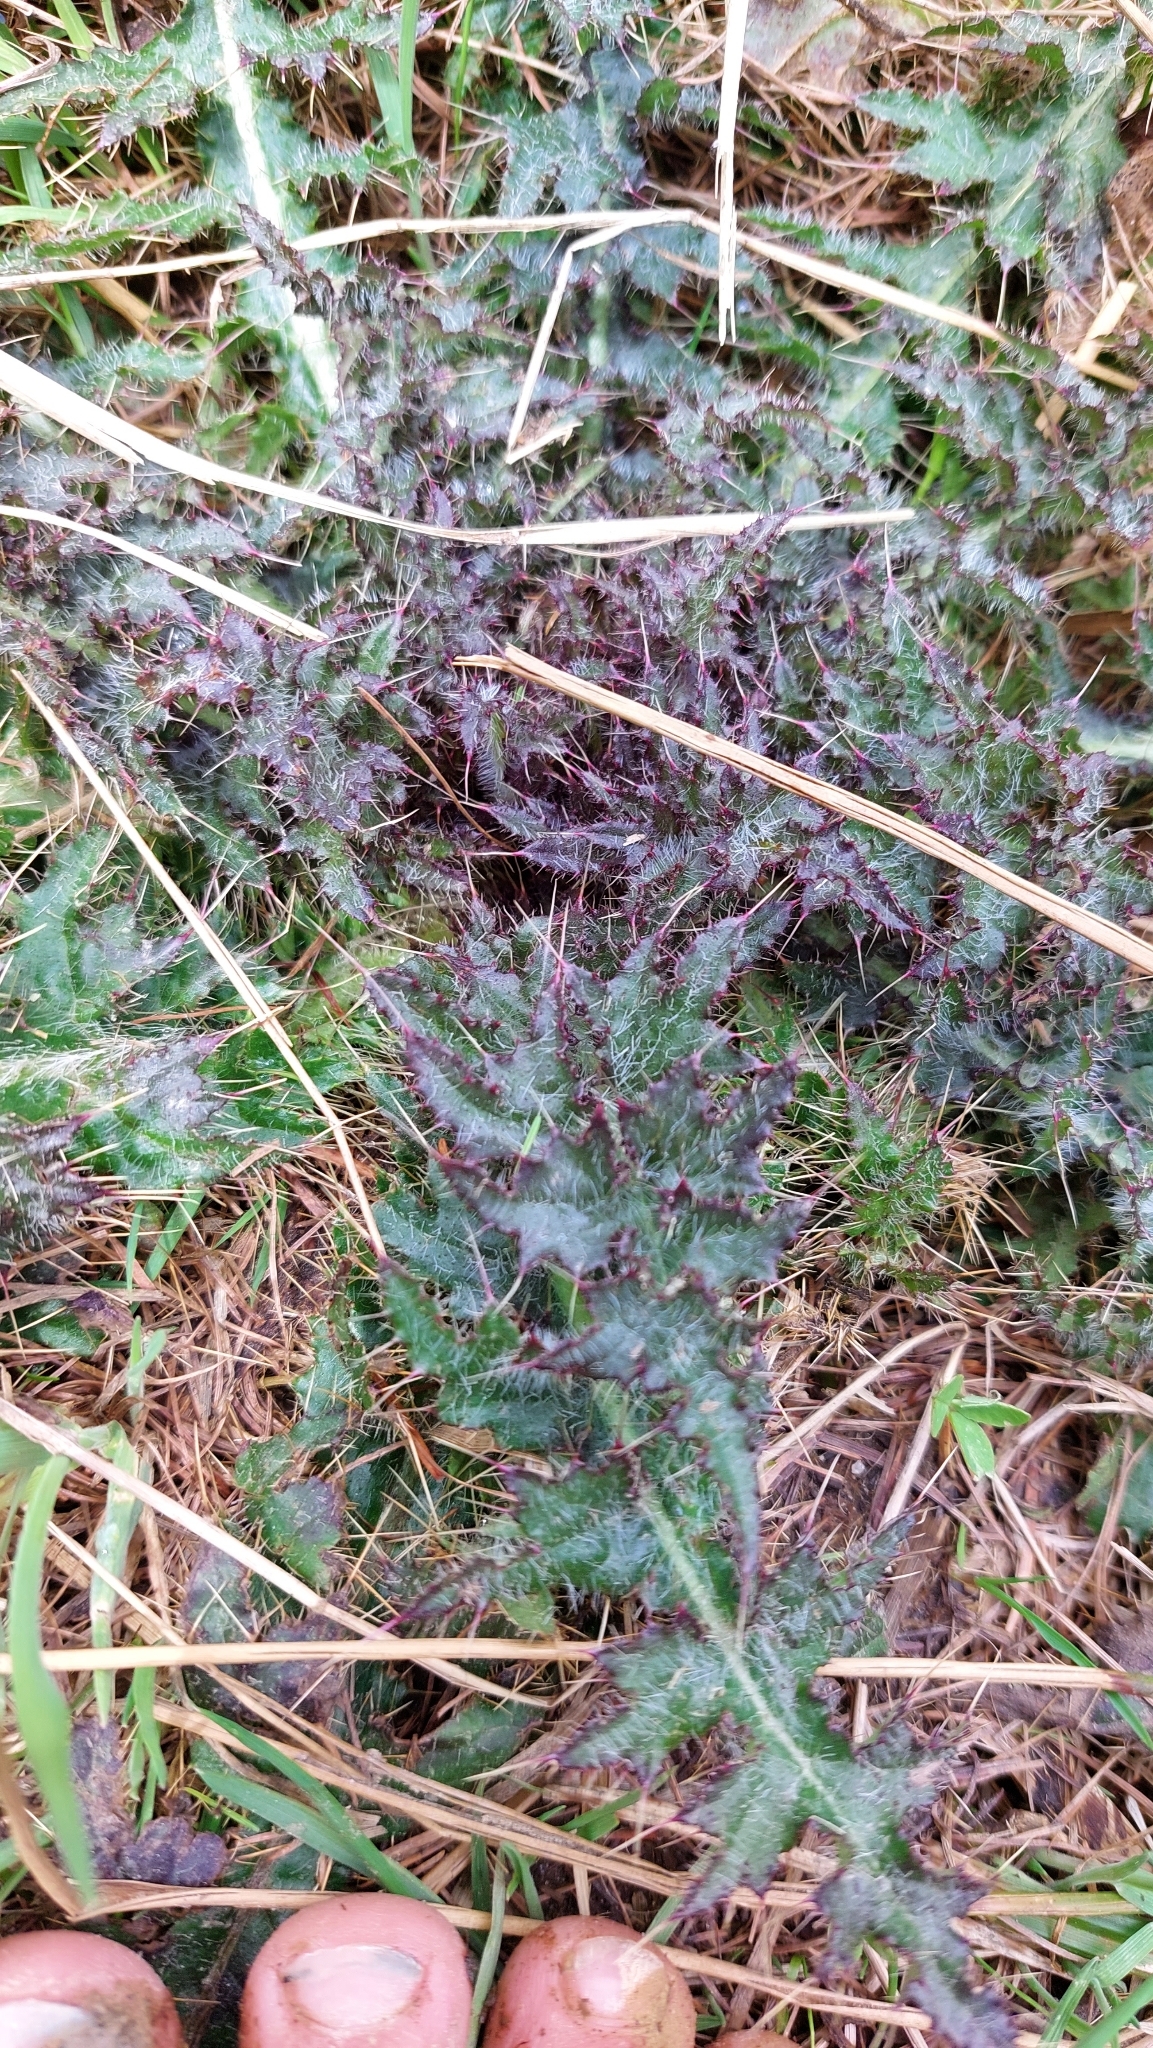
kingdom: Plantae
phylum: Tracheophyta
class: Magnoliopsida
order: Asterales
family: Asteraceae
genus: Cirsium
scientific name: Cirsium palustre
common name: Marsh thistle
